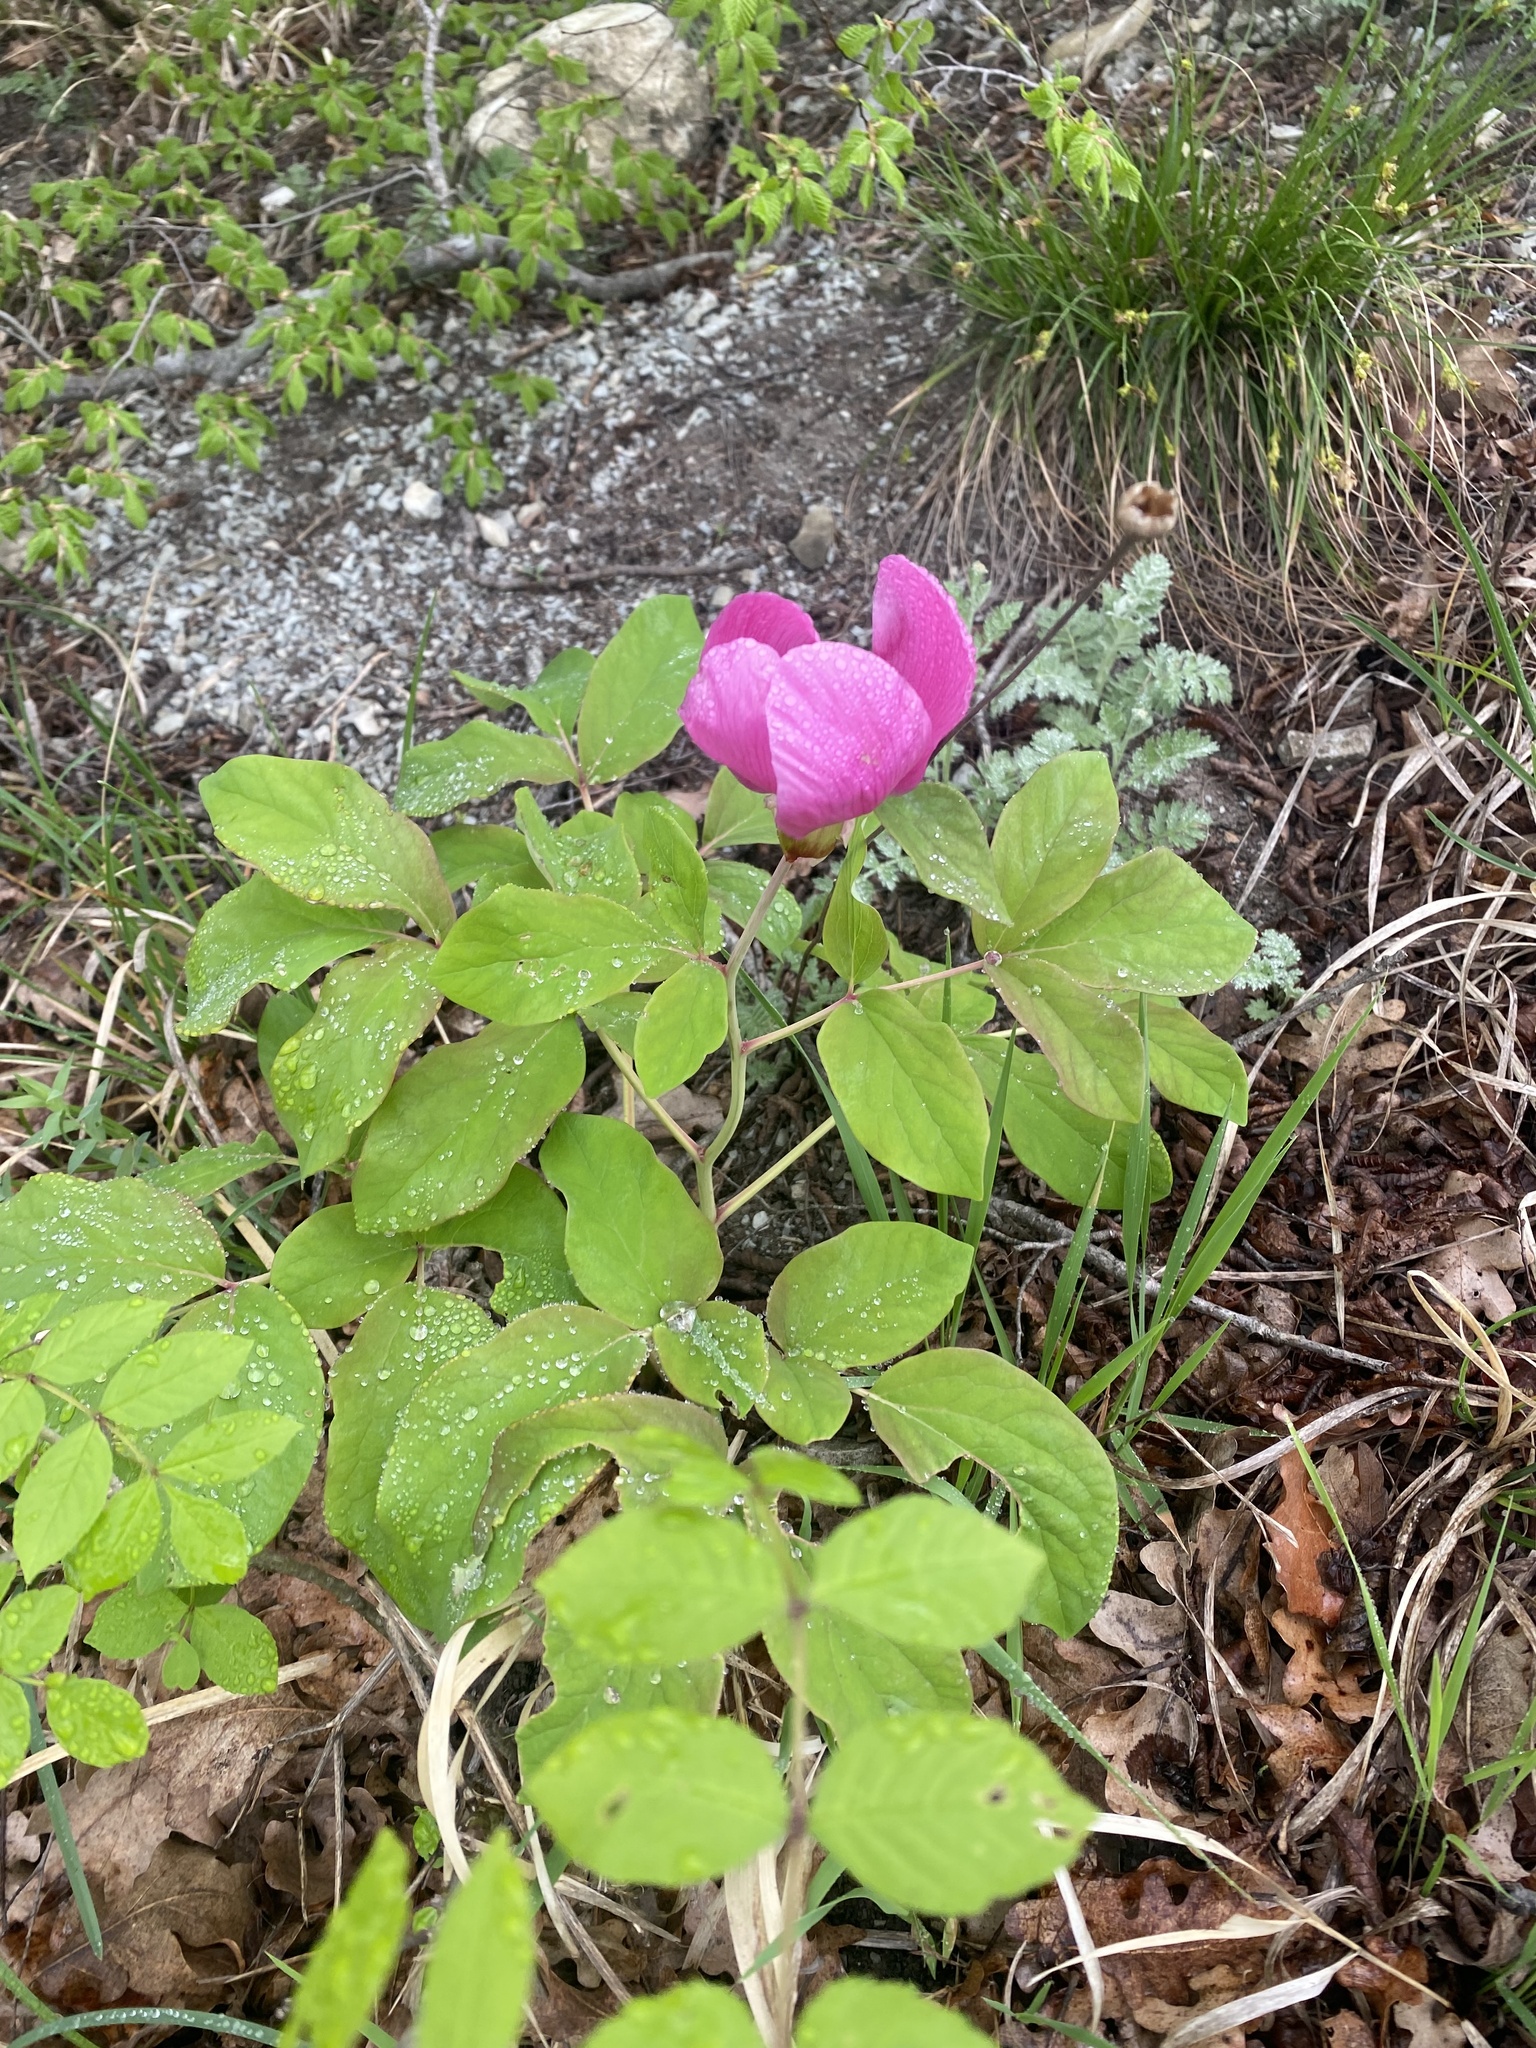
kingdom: Plantae
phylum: Tracheophyta
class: Magnoliopsida
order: Saxifragales
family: Paeoniaceae
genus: Paeonia
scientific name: Paeonia caucasica
